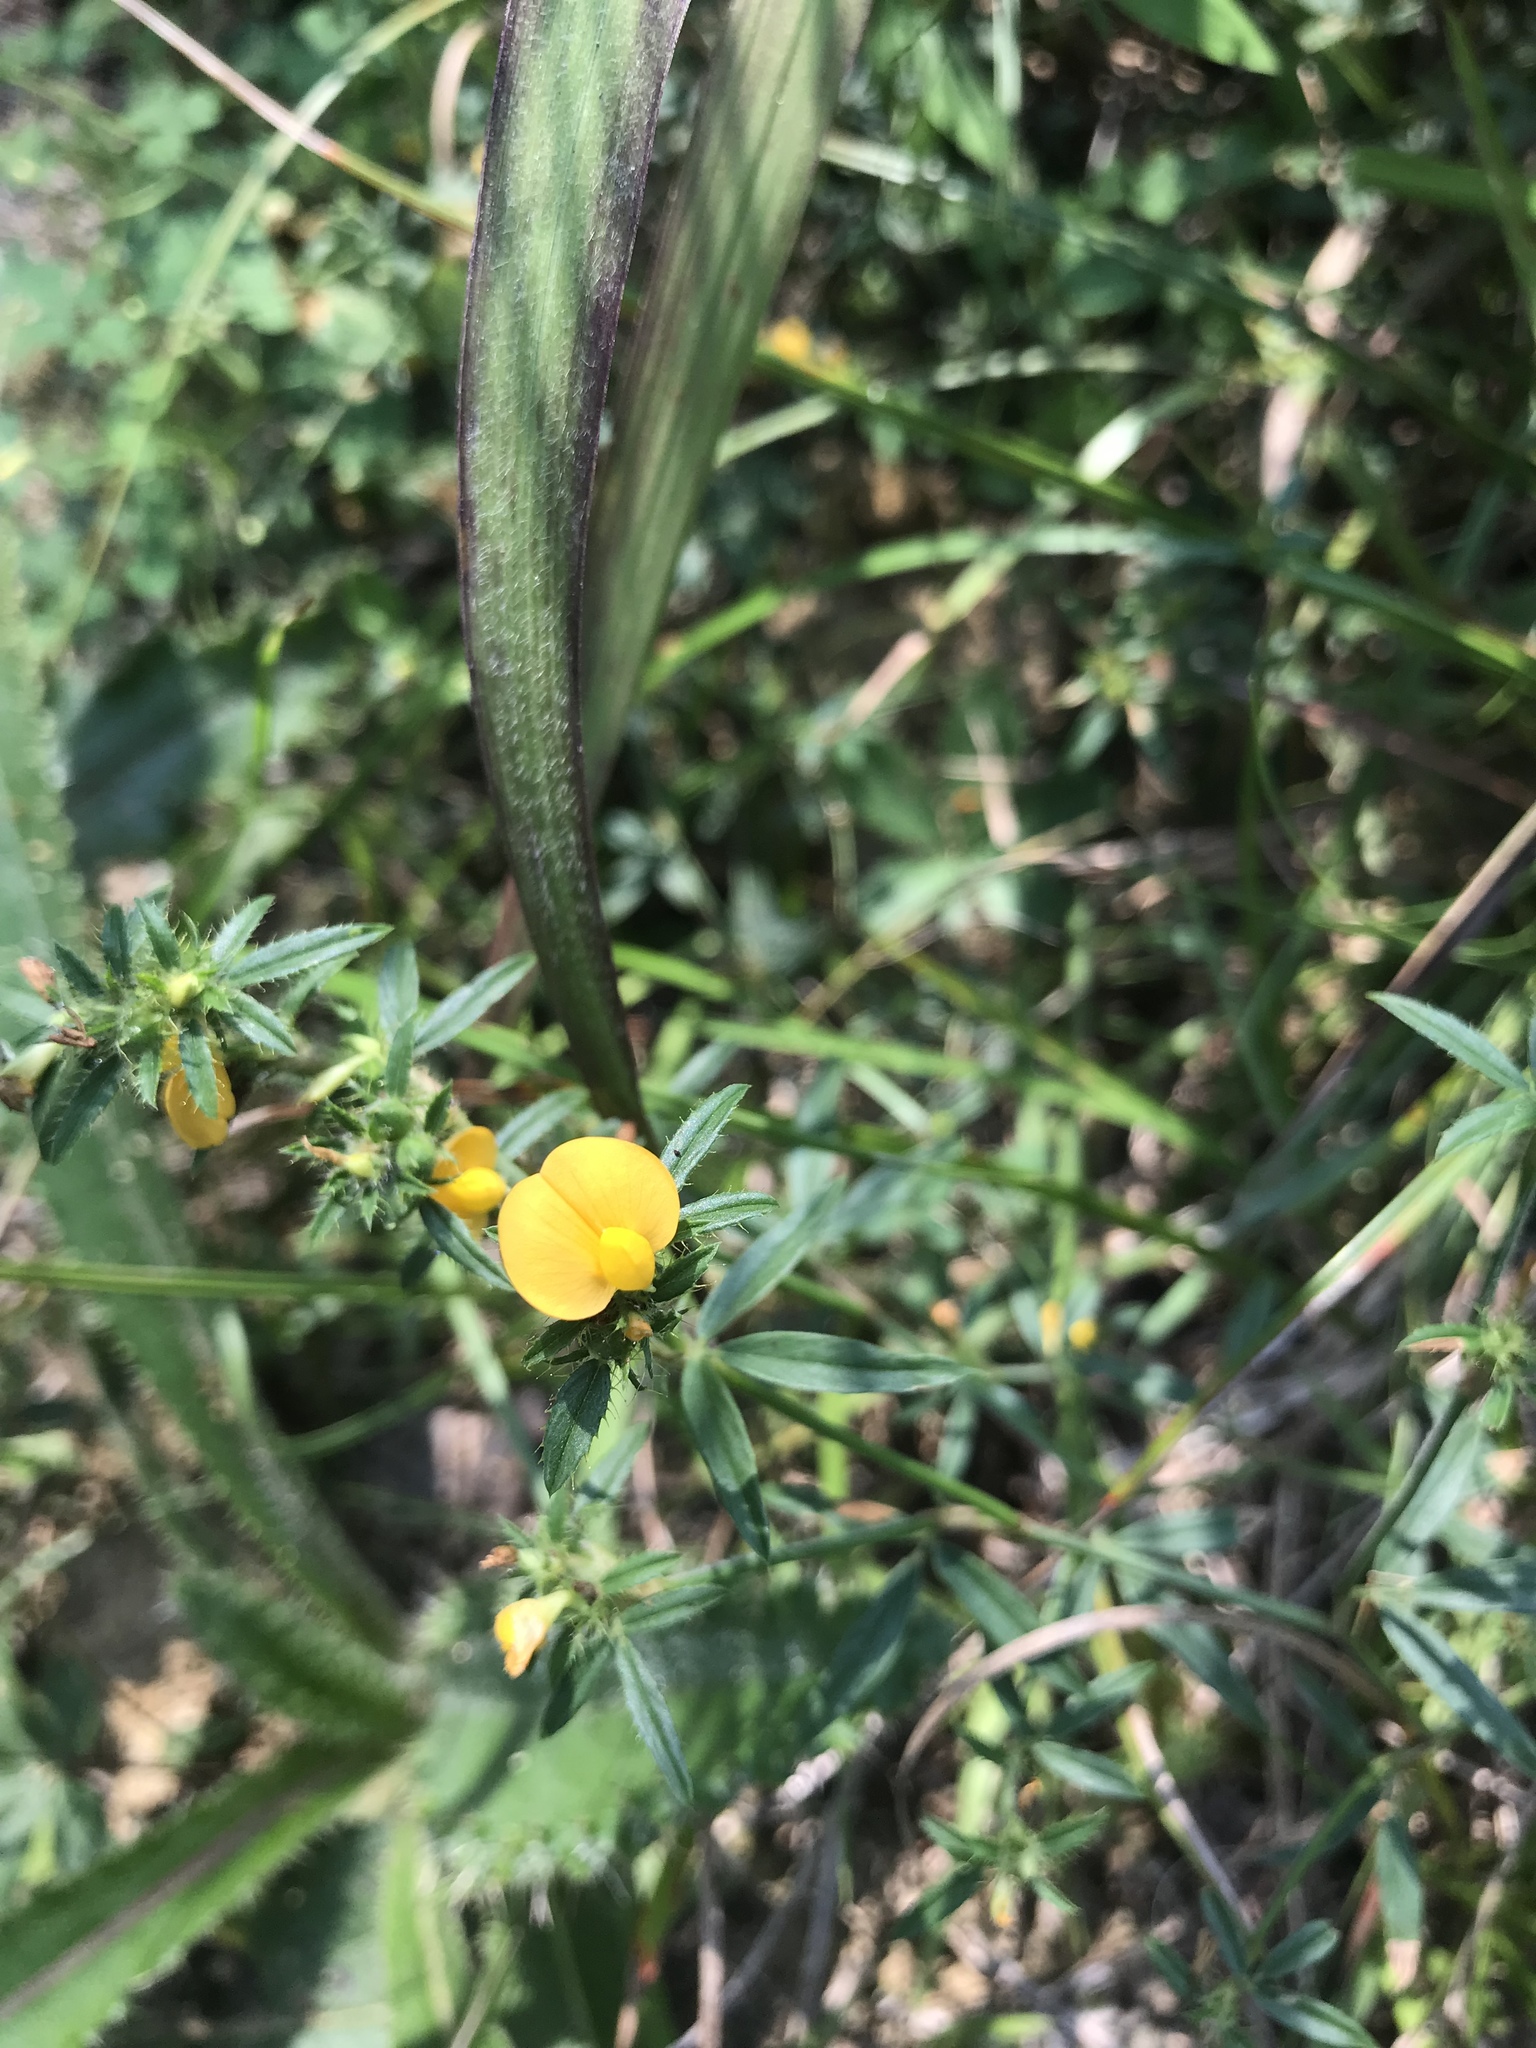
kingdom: Plantae
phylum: Tracheophyta
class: Magnoliopsida
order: Fabales
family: Fabaceae
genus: Stylosanthes
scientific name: Stylosanthes biflora
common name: Two-flower pencil-flower
